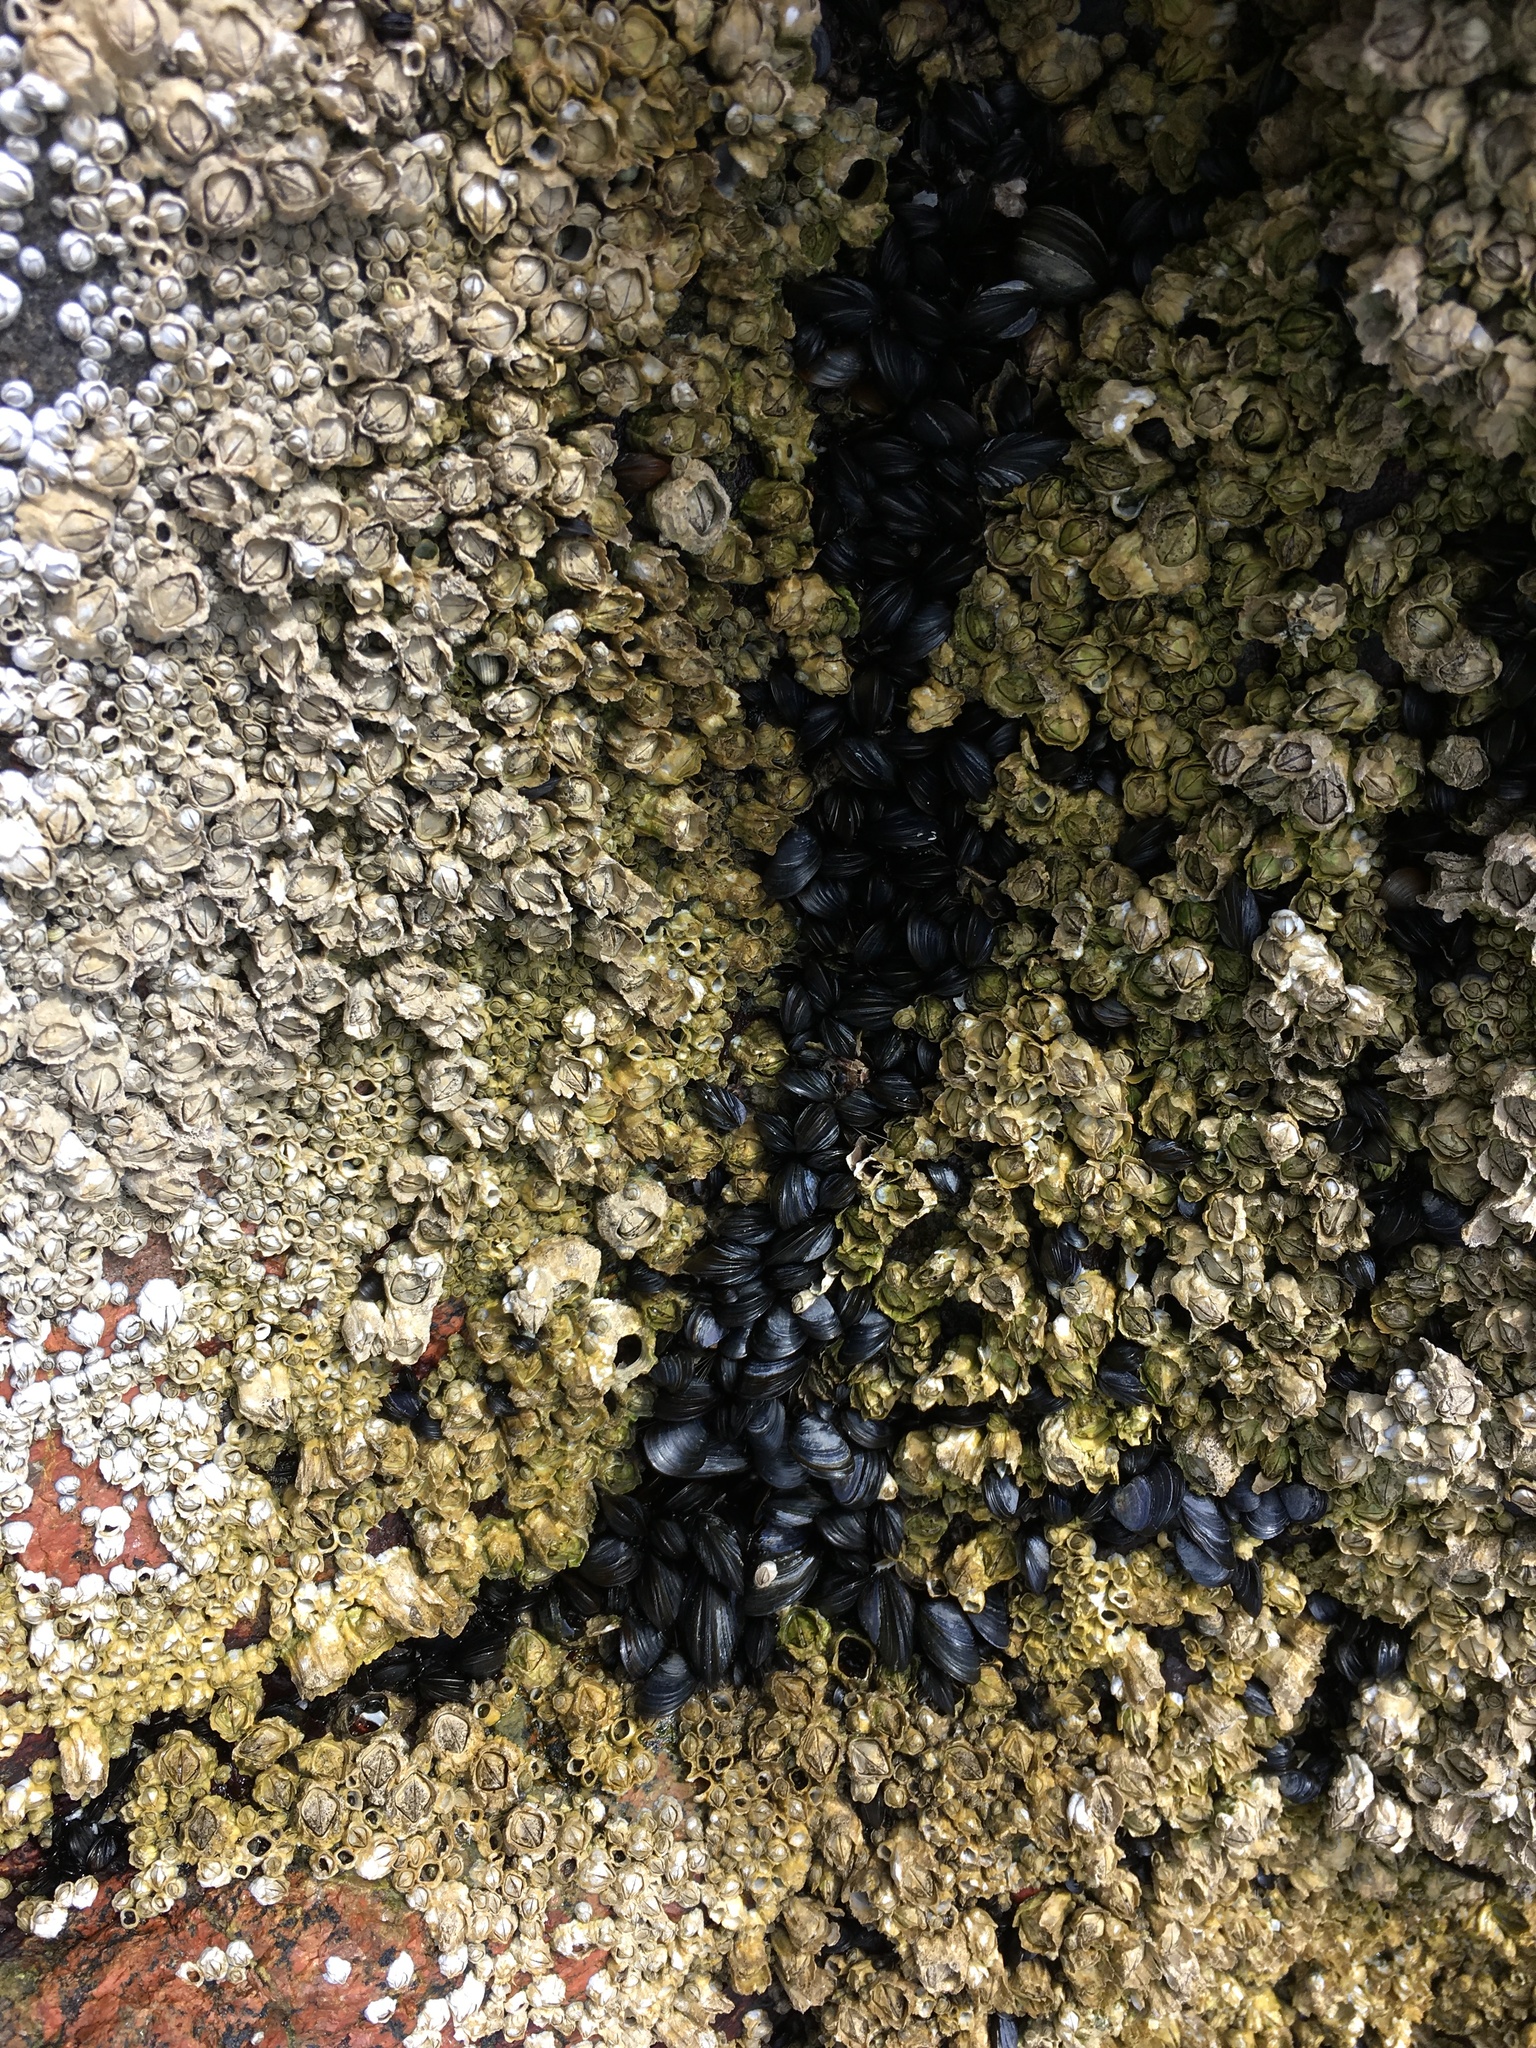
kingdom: Animalia
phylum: Arthropoda
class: Maxillopoda
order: Sessilia
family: Archaeobalanidae
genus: Semibalanus
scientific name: Semibalanus balanoides
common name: Acorn barnacle
